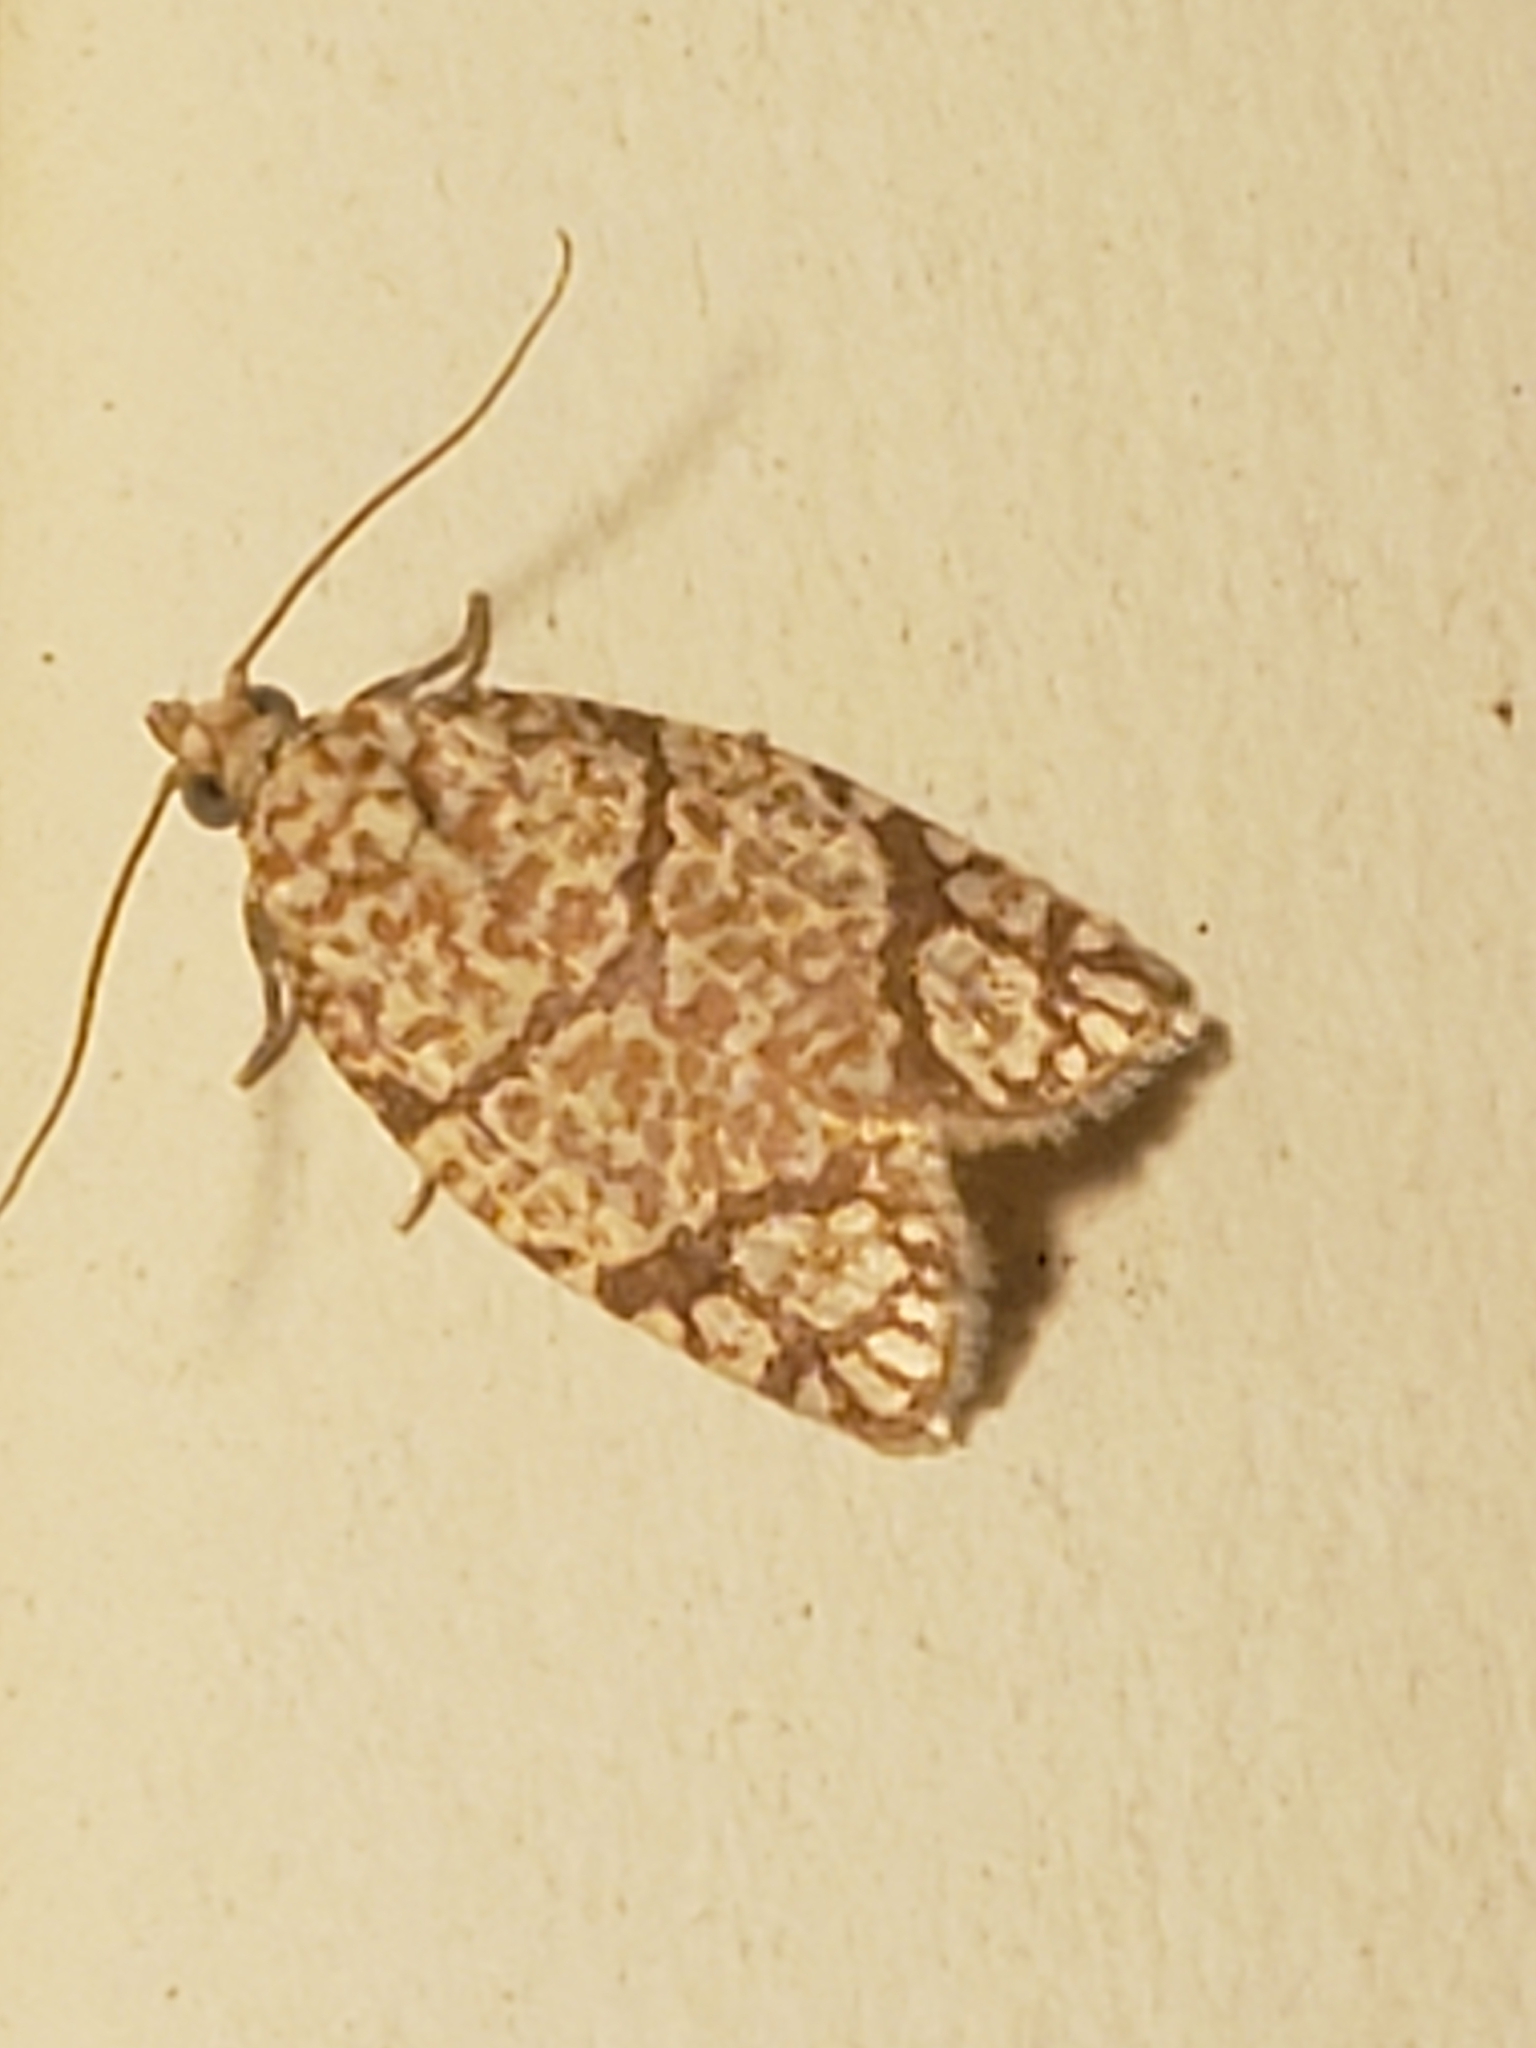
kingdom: Animalia
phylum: Arthropoda
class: Insecta
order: Lepidoptera
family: Tortricidae
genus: Argyrotaenia
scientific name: Argyrotaenia quercifoliana
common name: Yellow-winged oak leafroller moth
